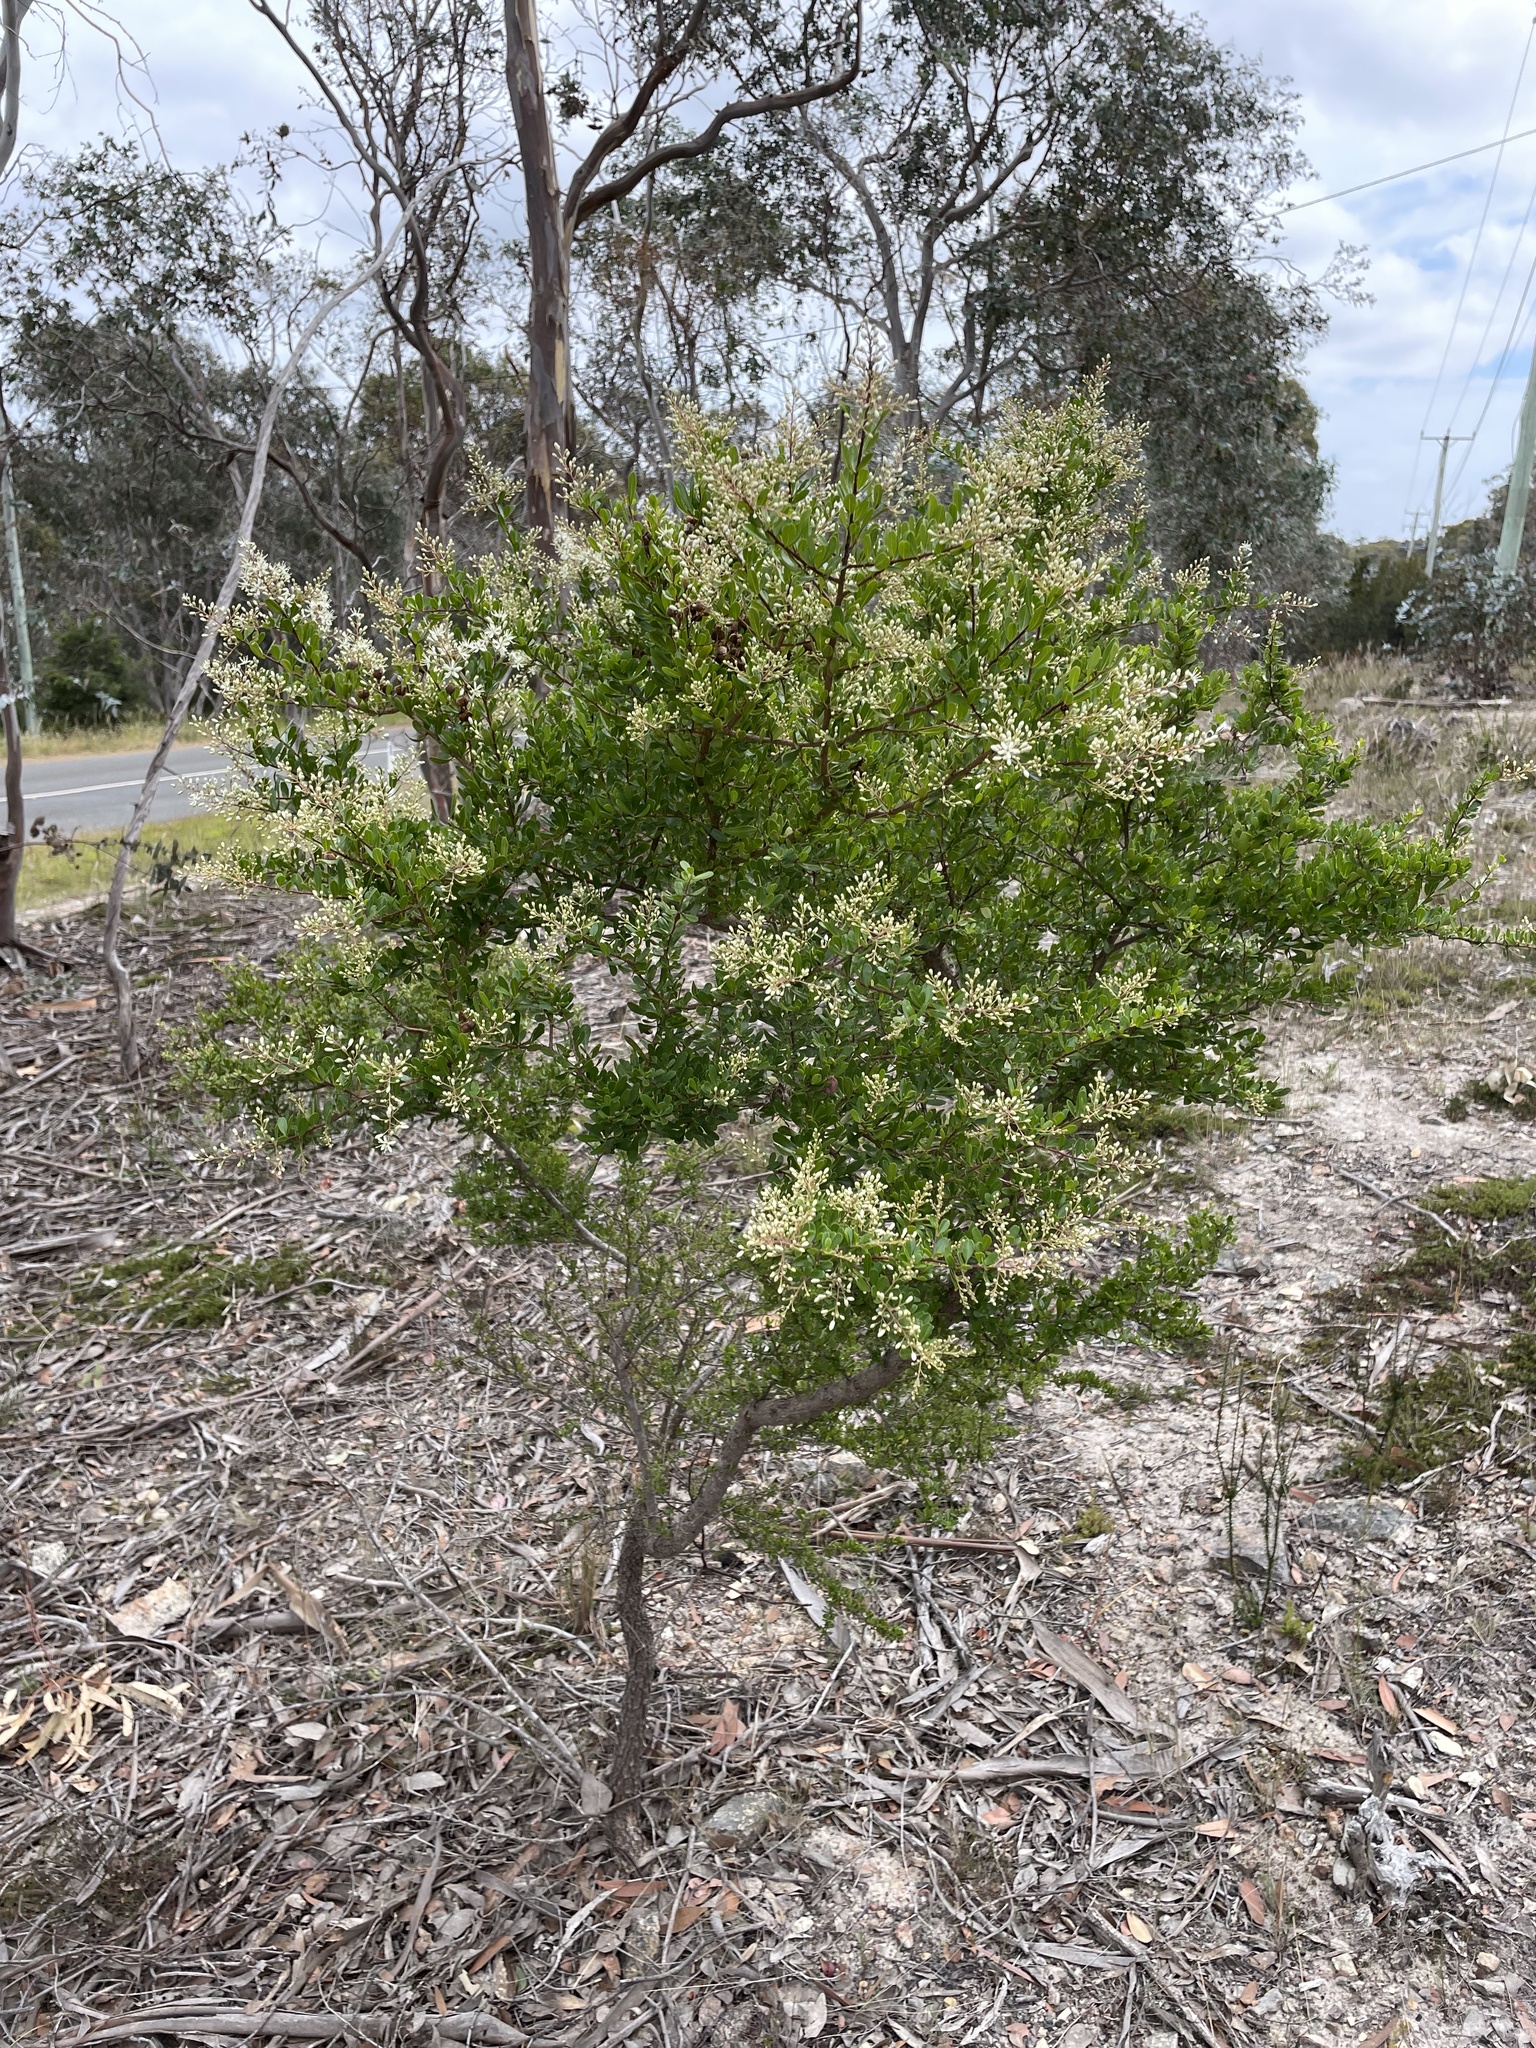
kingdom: Plantae
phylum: Tracheophyta
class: Magnoliopsida
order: Apiales
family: Pittosporaceae
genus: Bursaria
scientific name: Bursaria spinosa
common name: Australian blackthorn
